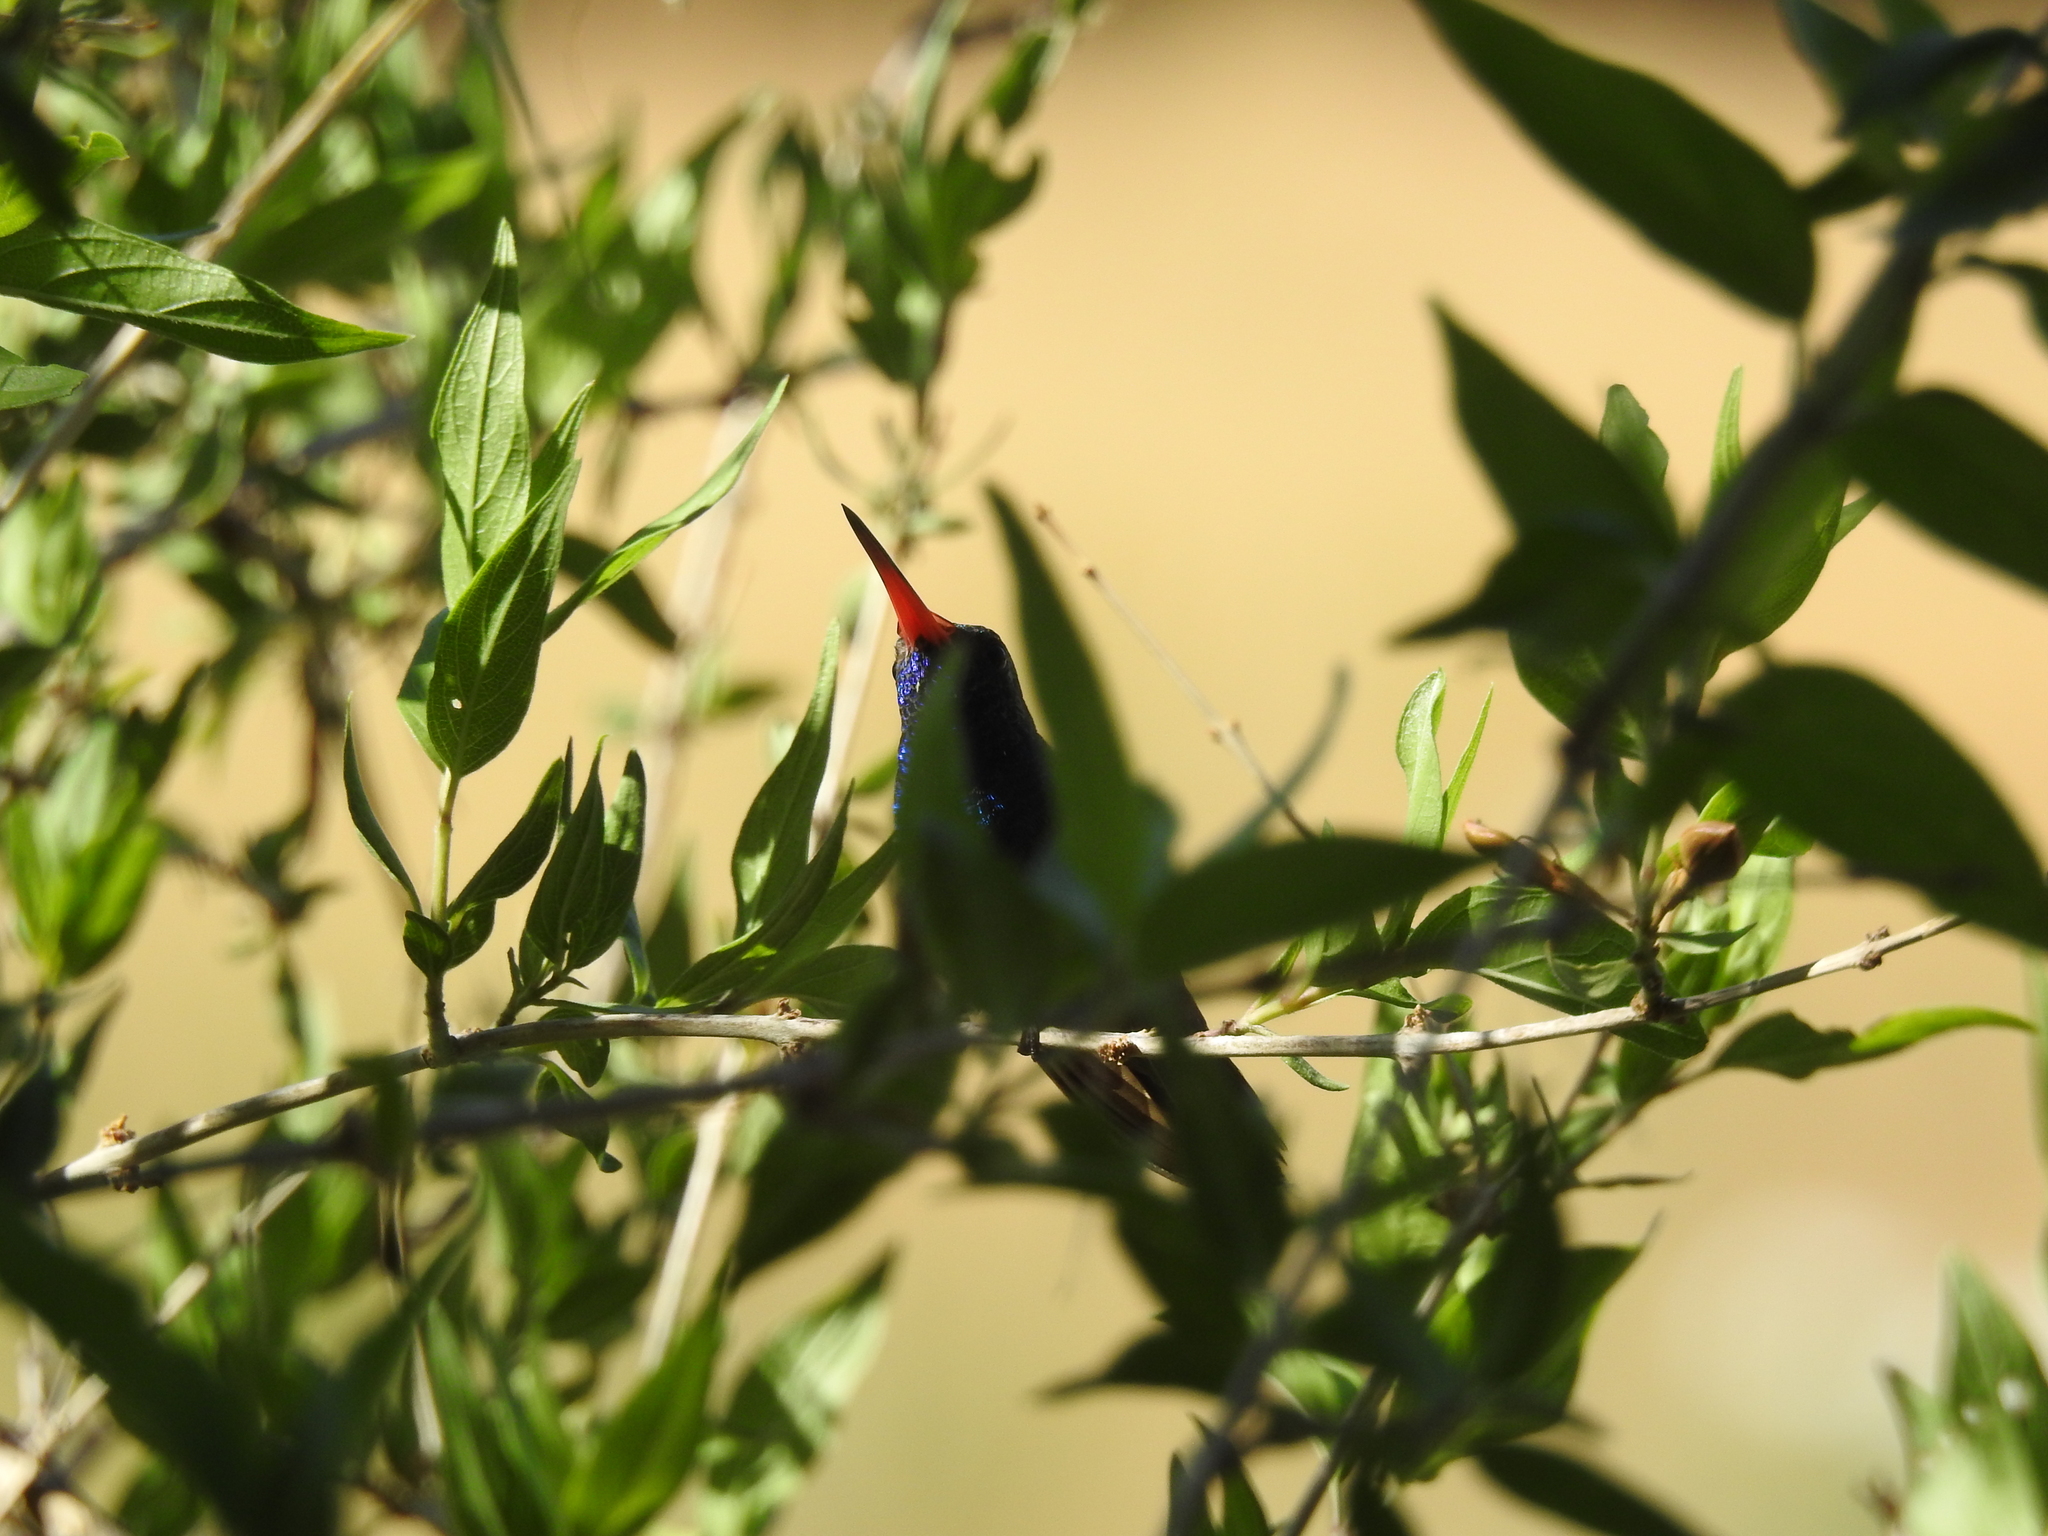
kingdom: Animalia
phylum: Chordata
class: Aves
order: Apodiformes
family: Trochilidae
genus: Cynanthus
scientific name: Cynanthus latirostris
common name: Broad-billed hummingbird
